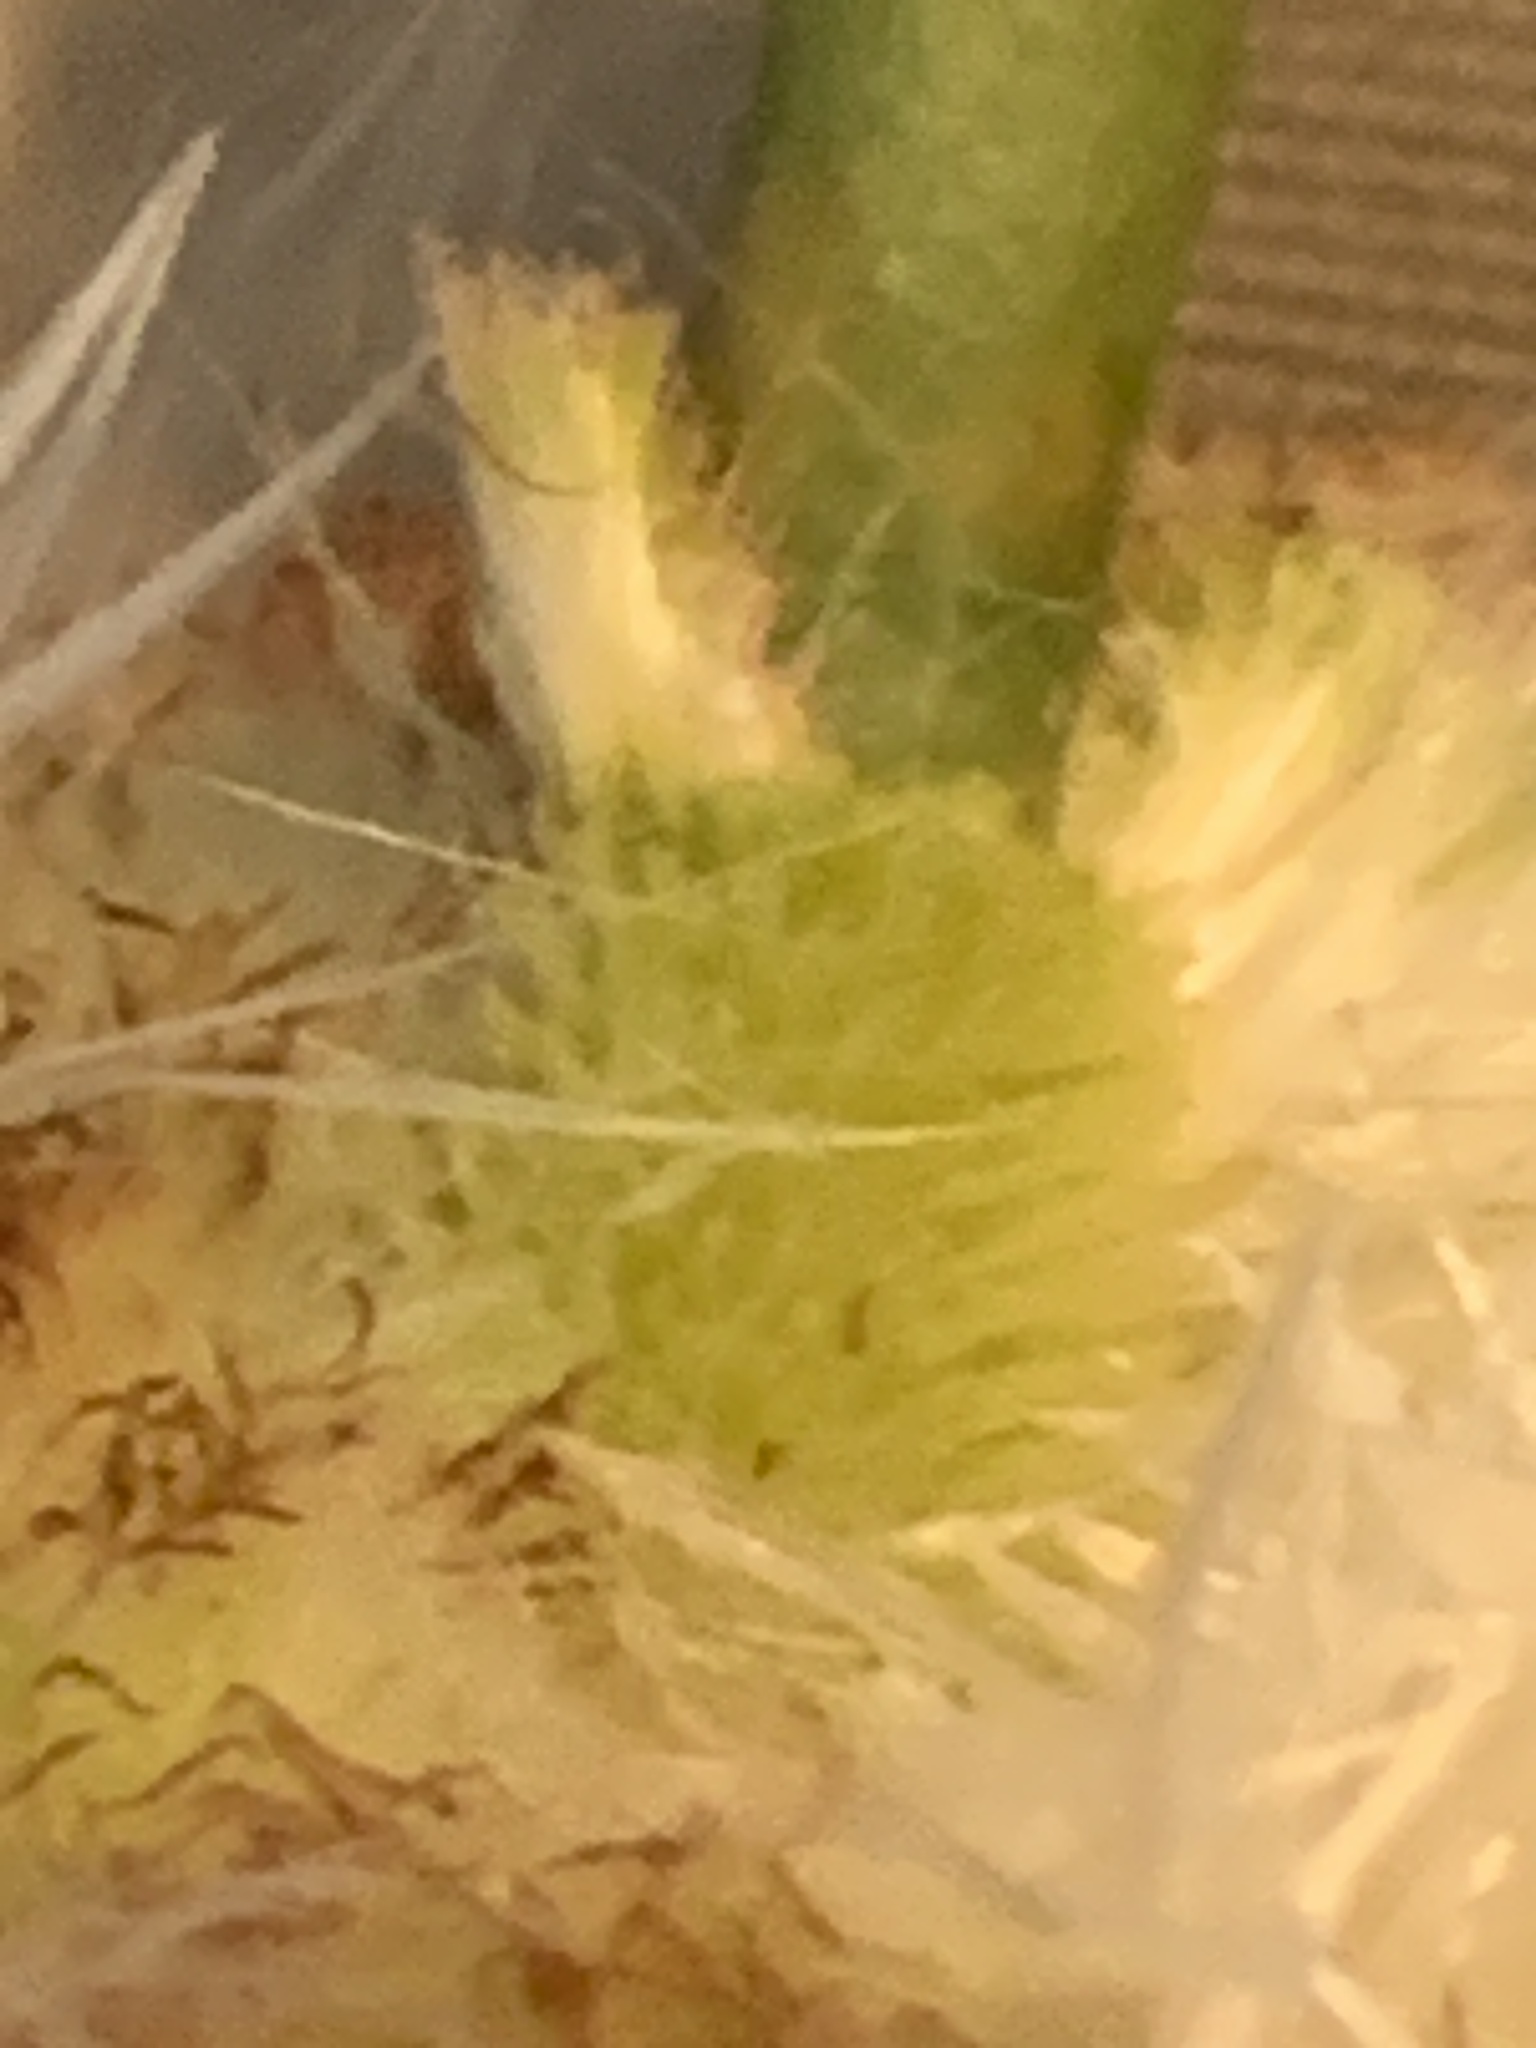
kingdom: Plantae
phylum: Tracheophyta
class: Liliopsida
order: Poales
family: Typhaceae
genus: Typha
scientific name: Typha glauca
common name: Blue cattail
